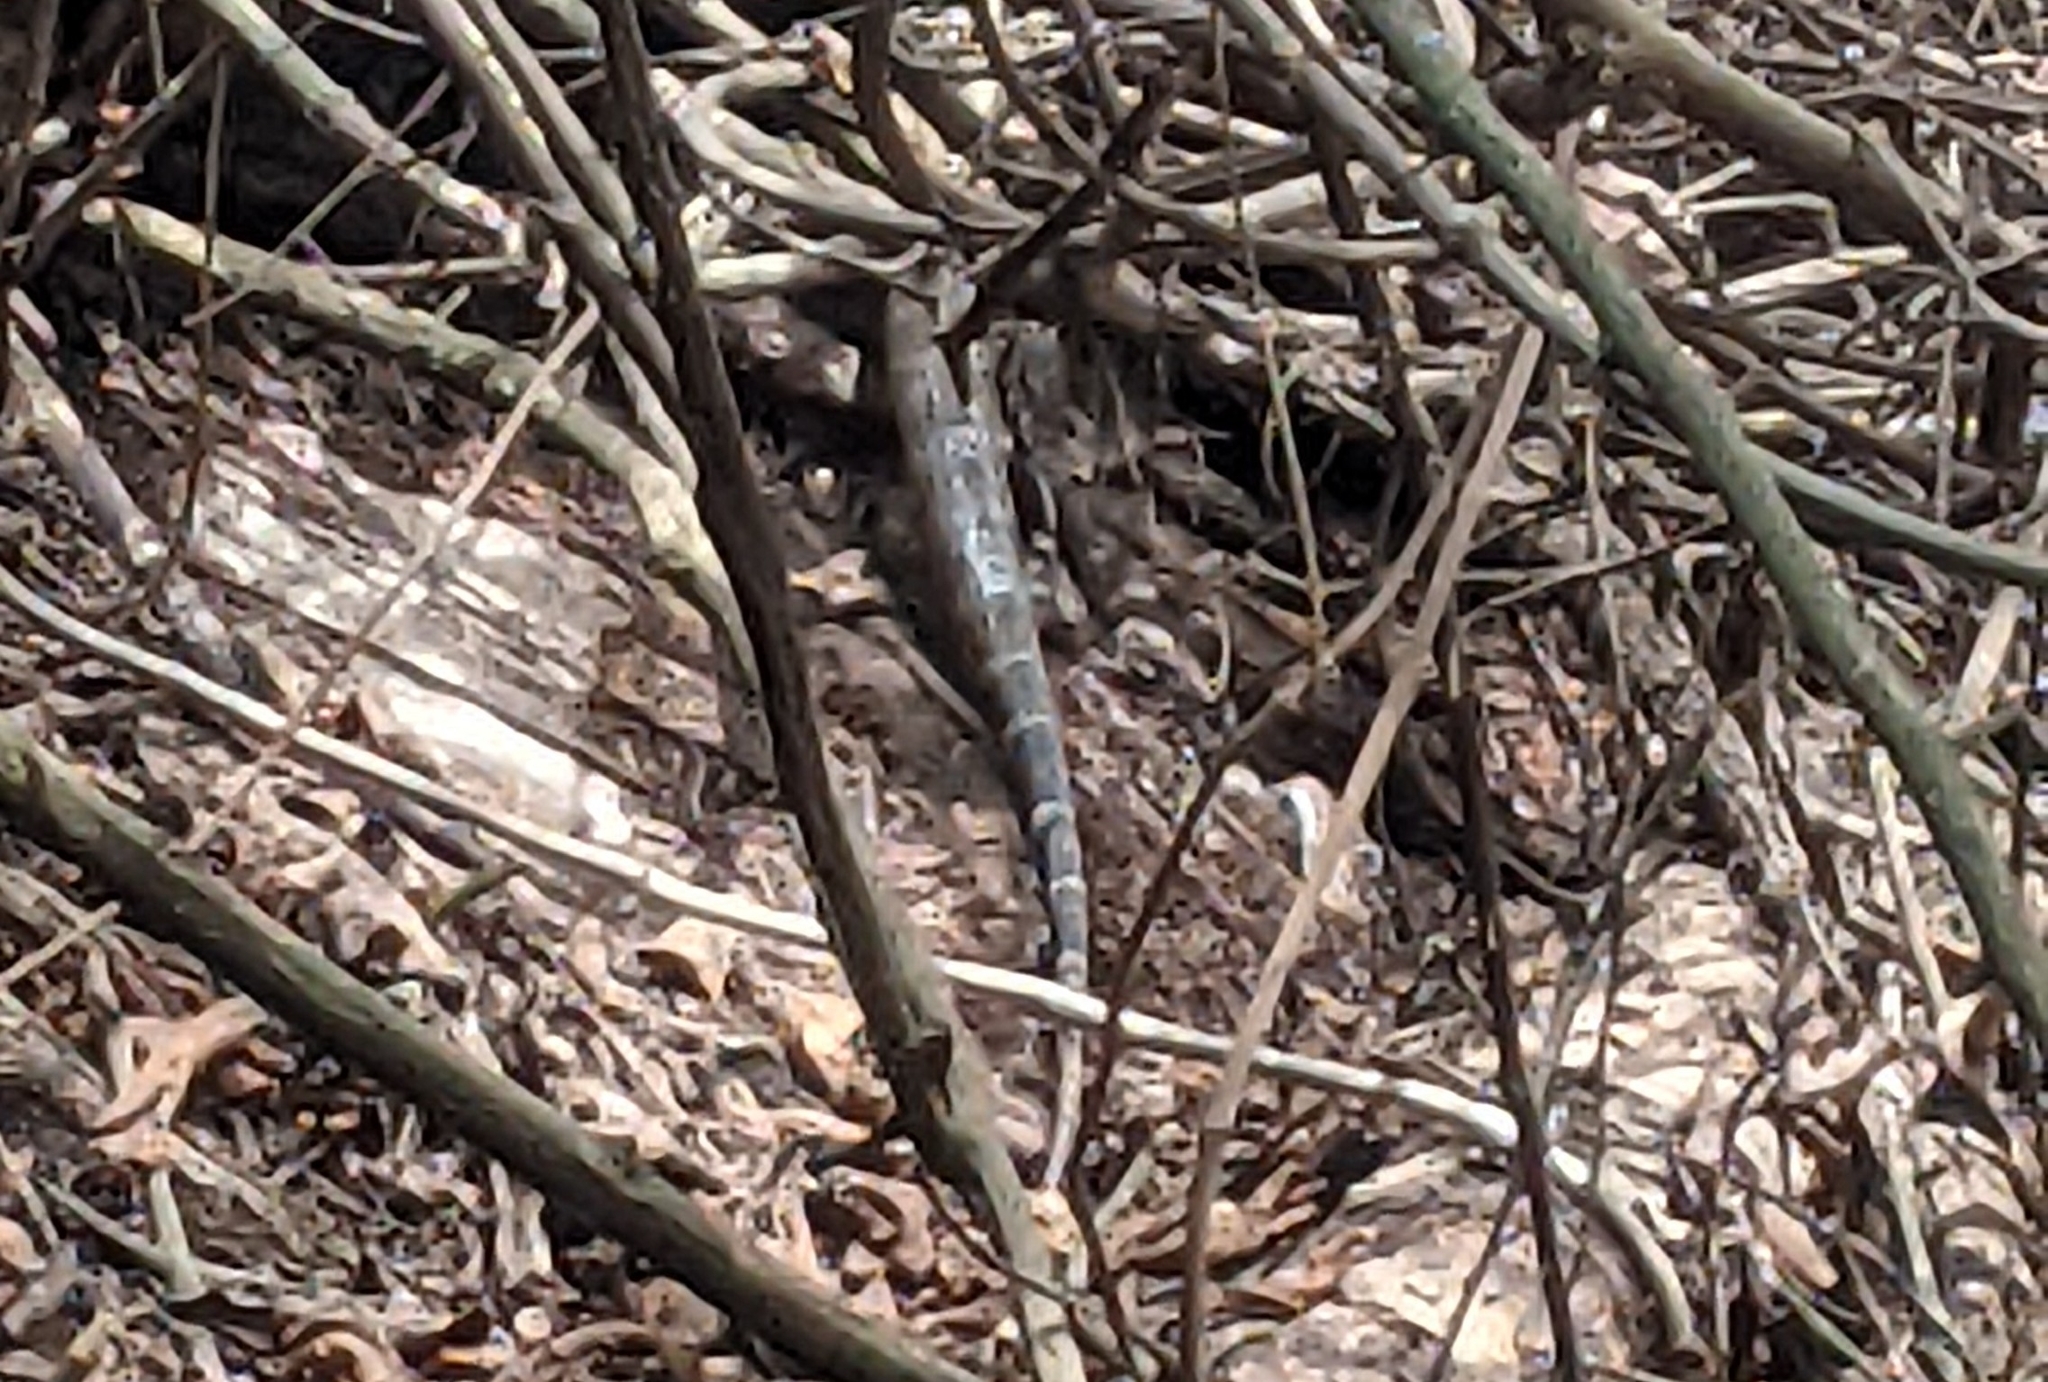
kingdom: Animalia
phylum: Chordata
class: Squamata
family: Corytophanidae
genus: Basiliscus
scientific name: Basiliscus basiliscus
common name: Common basilisk
